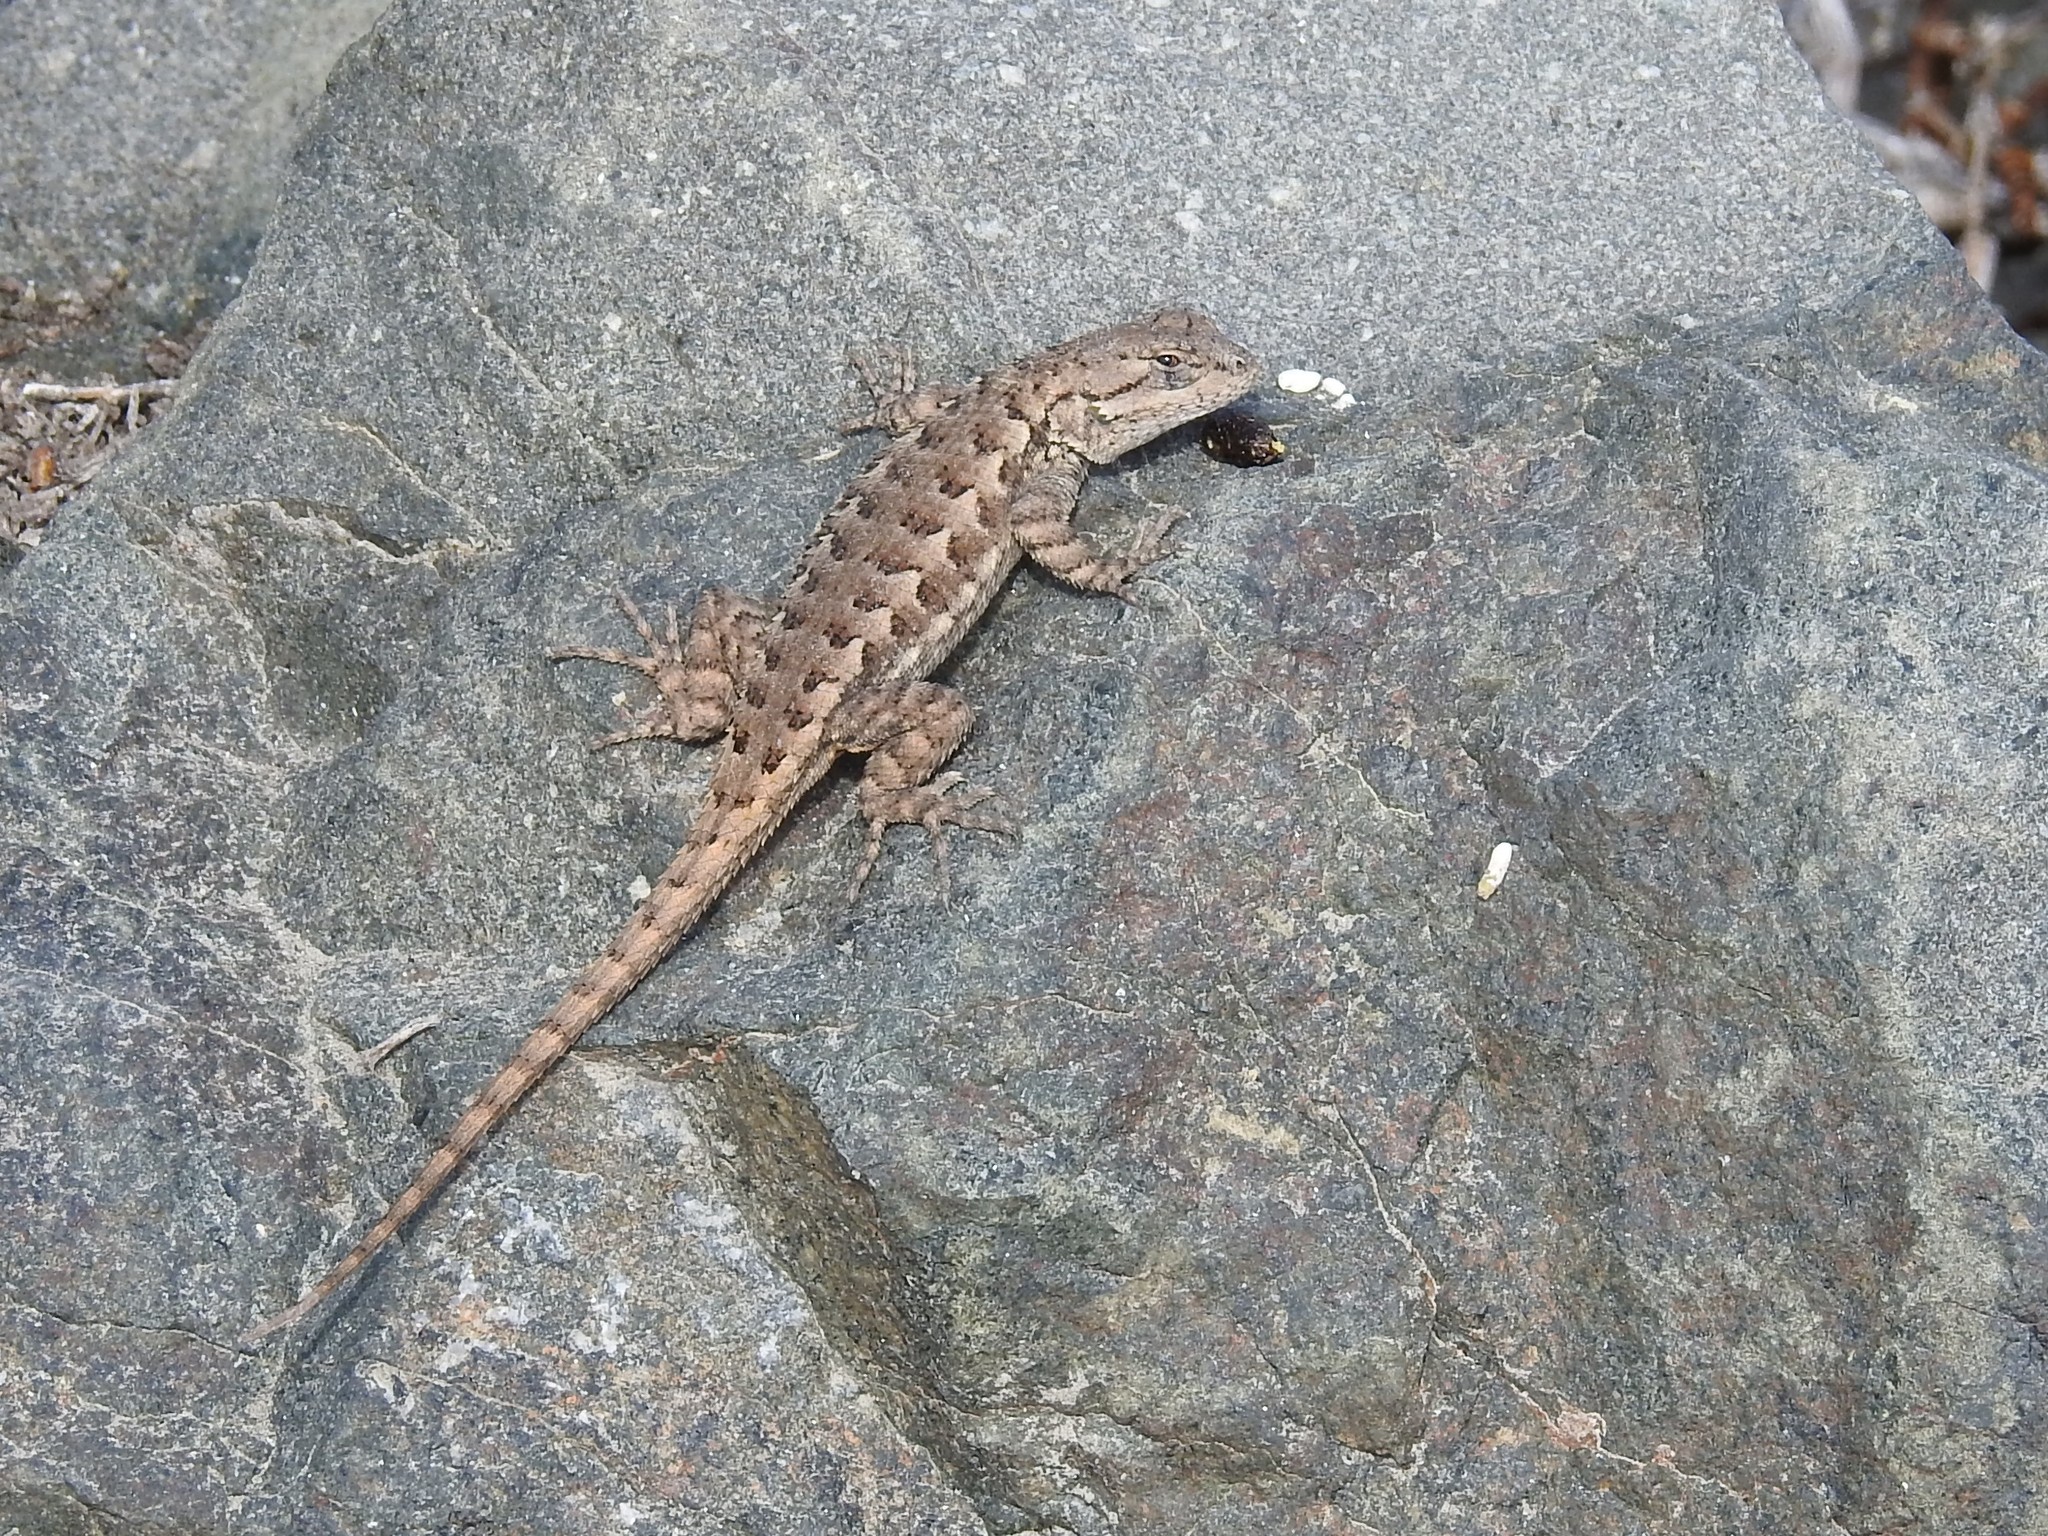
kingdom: Animalia
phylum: Chordata
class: Squamata
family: Phrynosomatidae
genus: Sceloporus
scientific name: Sceloporus occidentalis
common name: Western fence lizard
